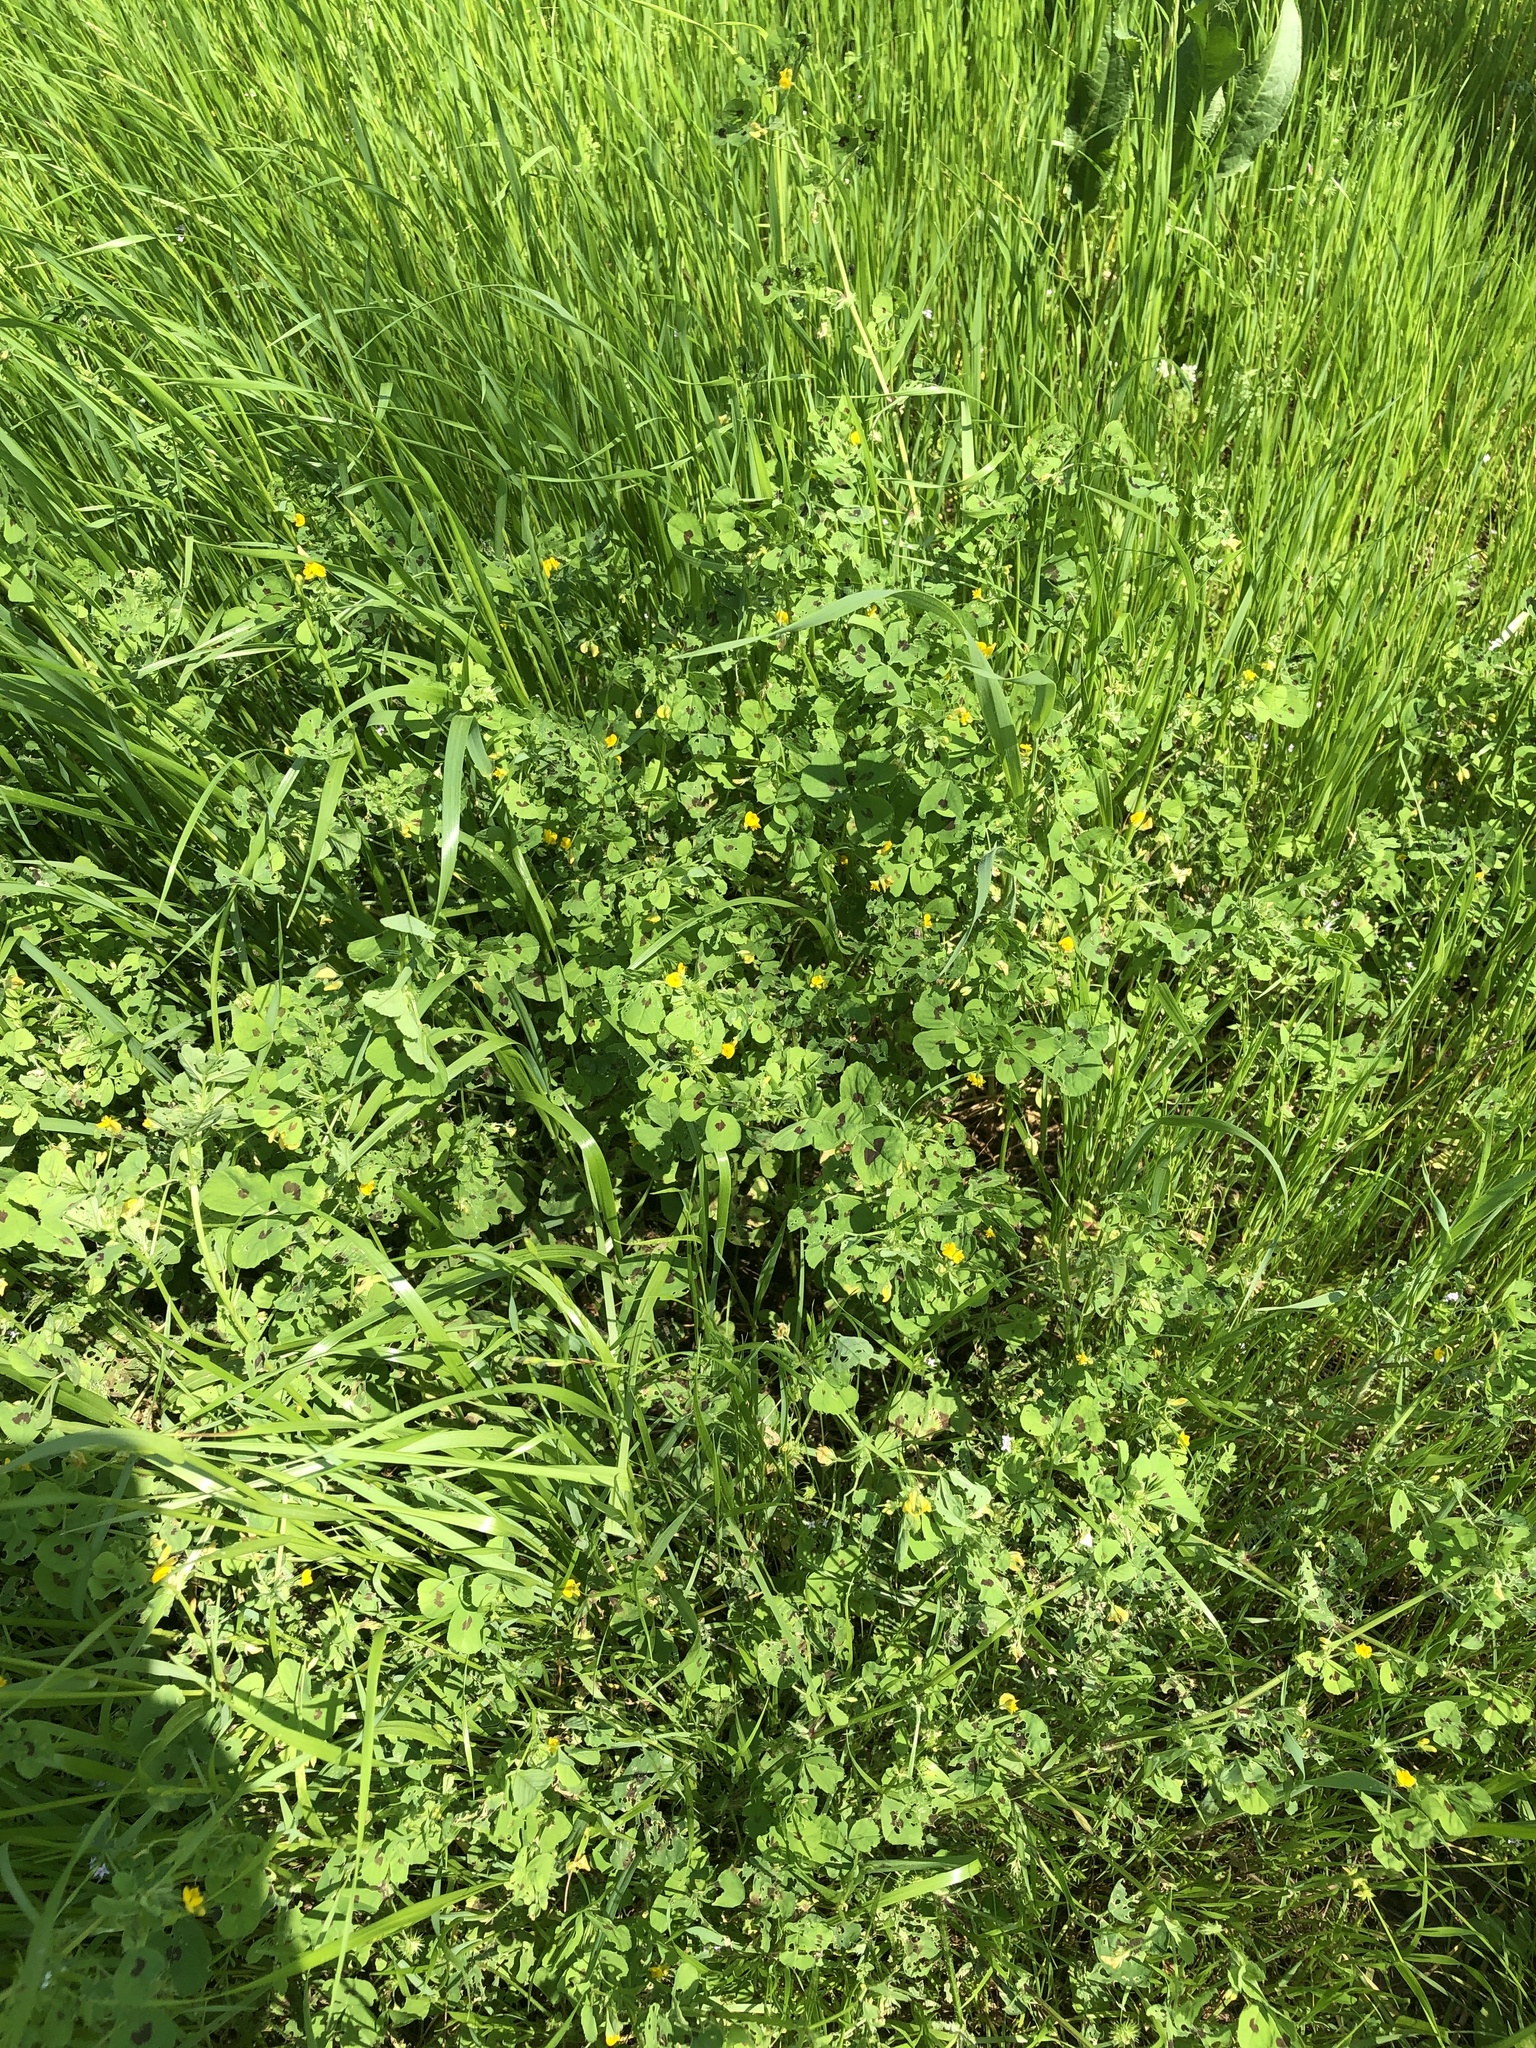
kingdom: Plantae
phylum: Tracheophyta
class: Magnoliopsida
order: Fabales
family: Fabaceae
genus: Medicago
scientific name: Medicago arabica
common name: Spotted medick
